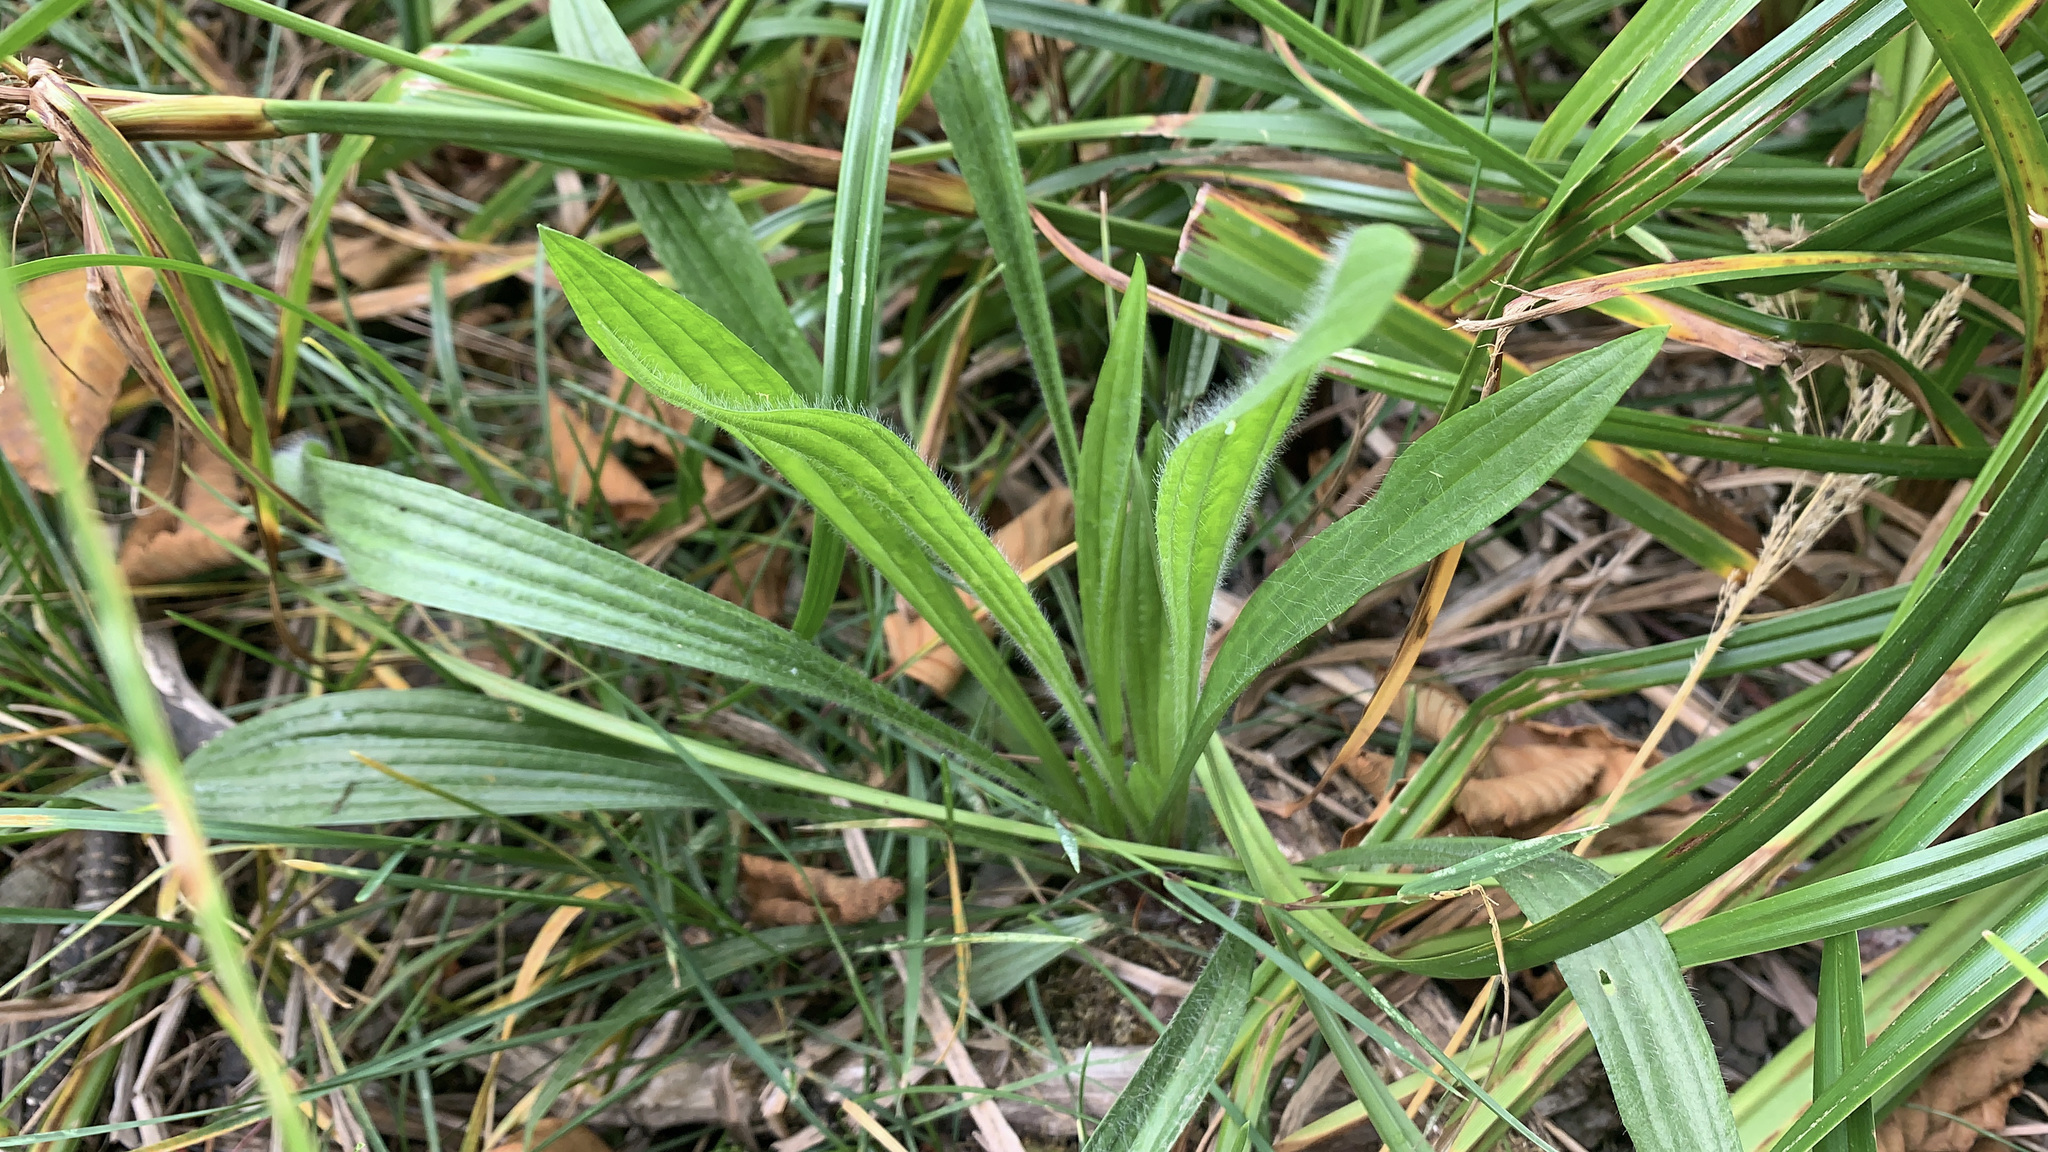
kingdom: Plantae
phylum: Tracheophyta
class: Magnoliopsida
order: Lamiales
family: Plantaginaceae
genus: Plantago
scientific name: Plantago lanceolata
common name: Ribwort plantain
